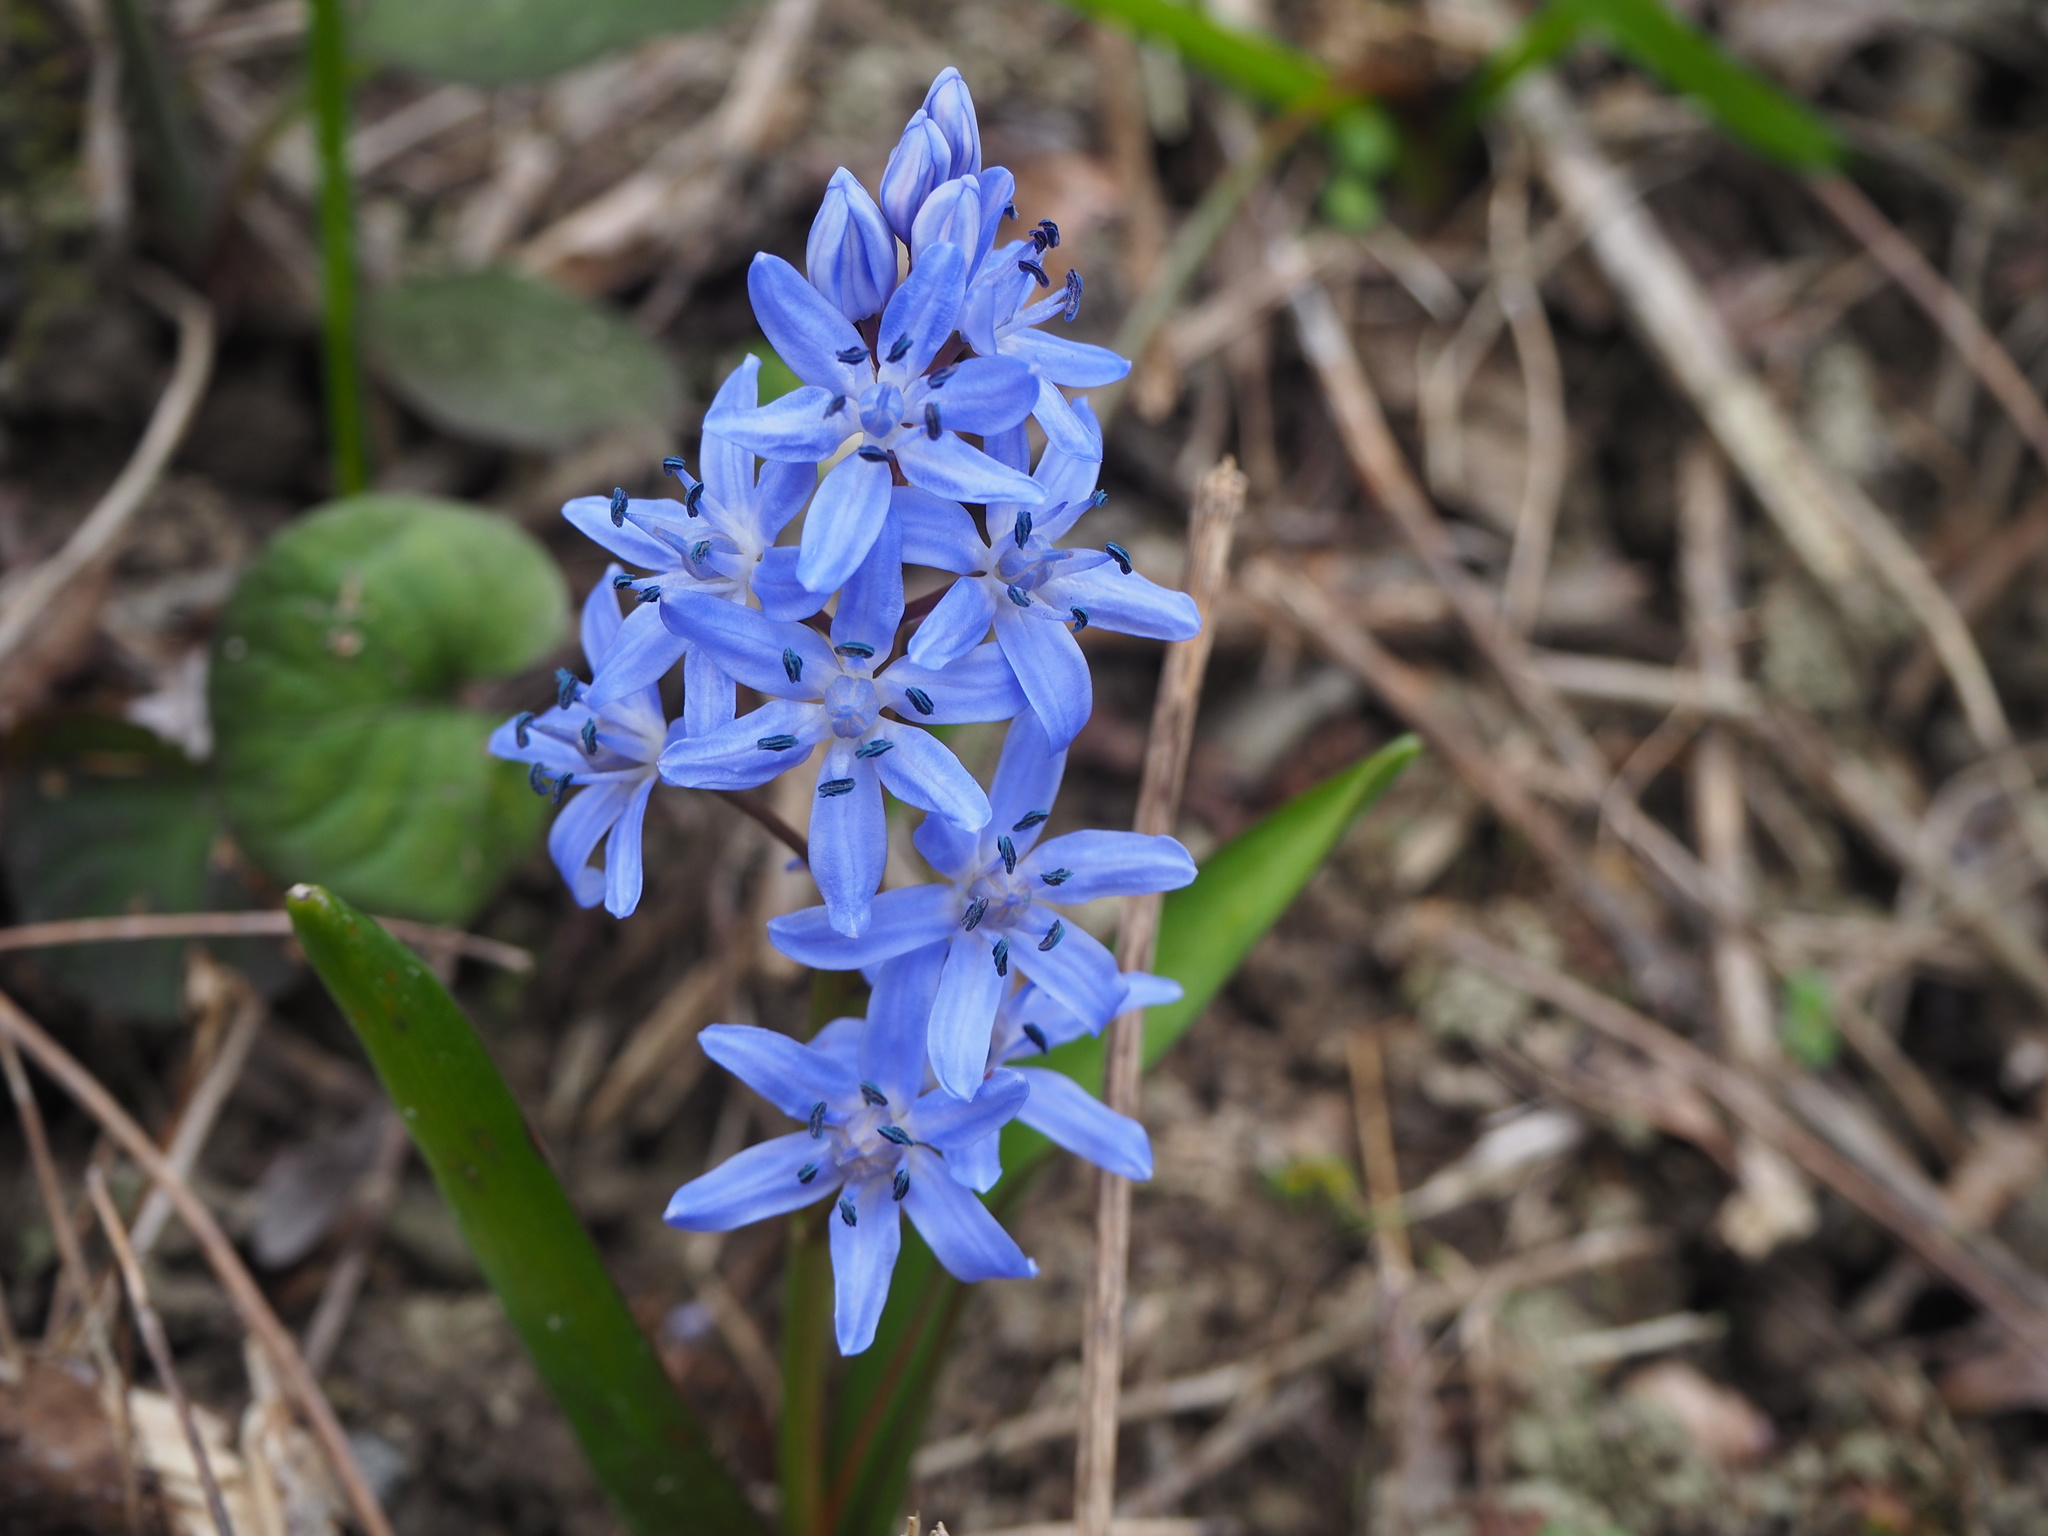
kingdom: Plantae
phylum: Tracheophyta
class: Liliopsida
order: Asparagales
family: Asparagaceae
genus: Scilla
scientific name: Scilla bifolia
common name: Alpine squill
